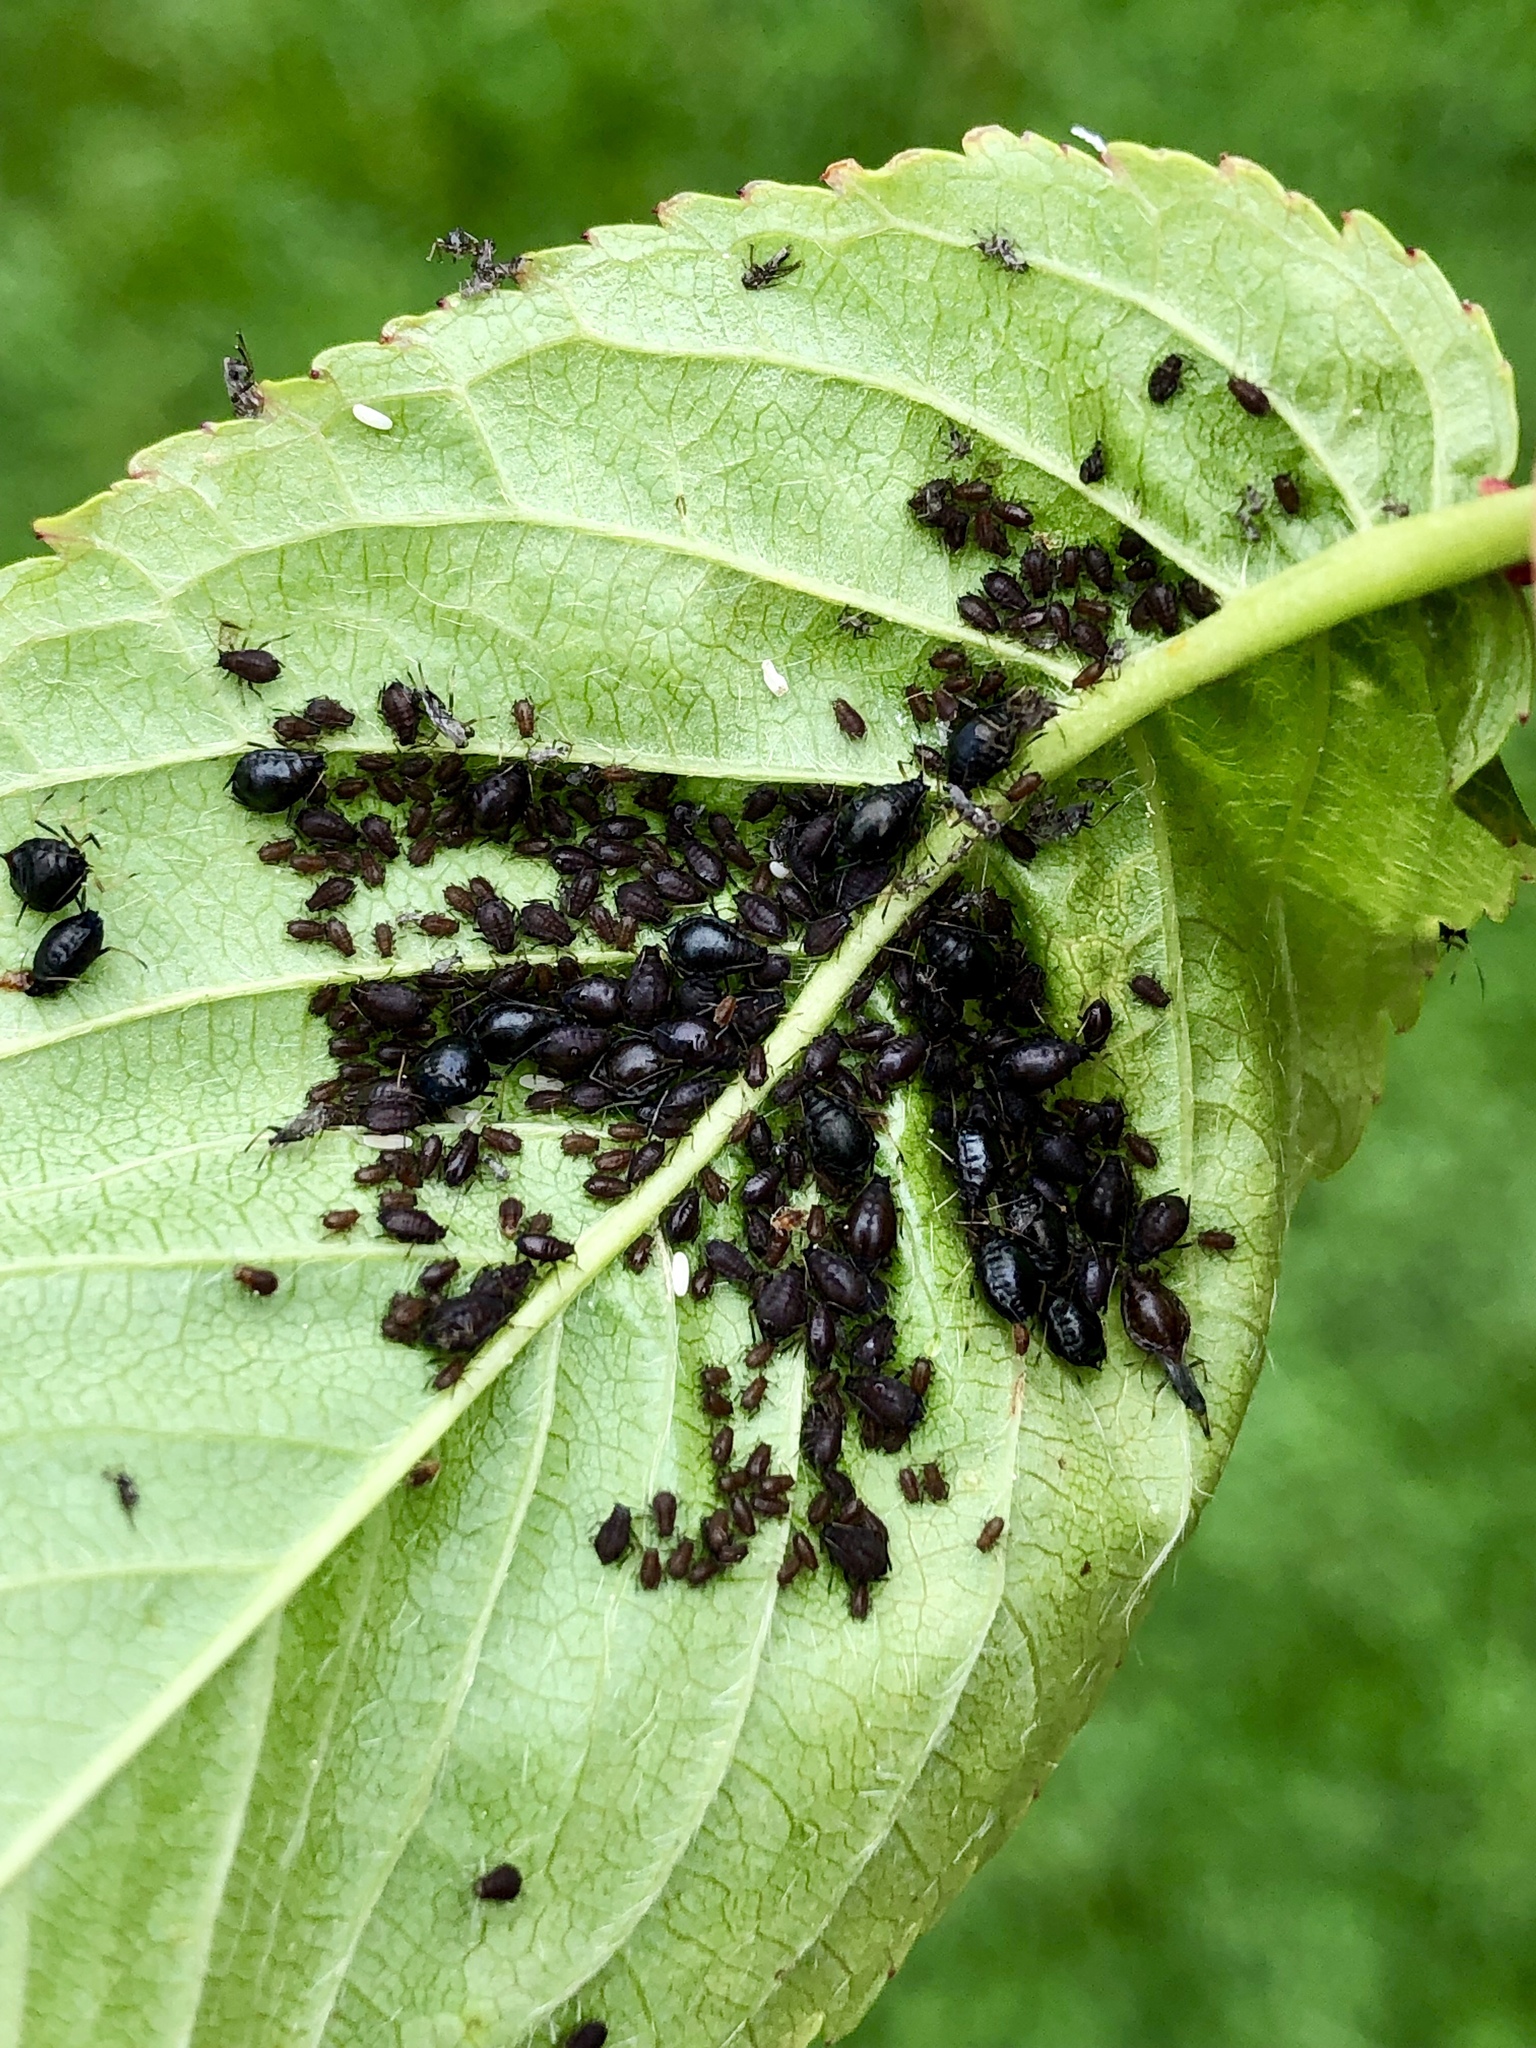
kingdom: Animalia
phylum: Arthropoda
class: Insecta
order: Hemiptera
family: Aphididae
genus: Myzus
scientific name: Myzus cerasi
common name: Black cherry aphid
